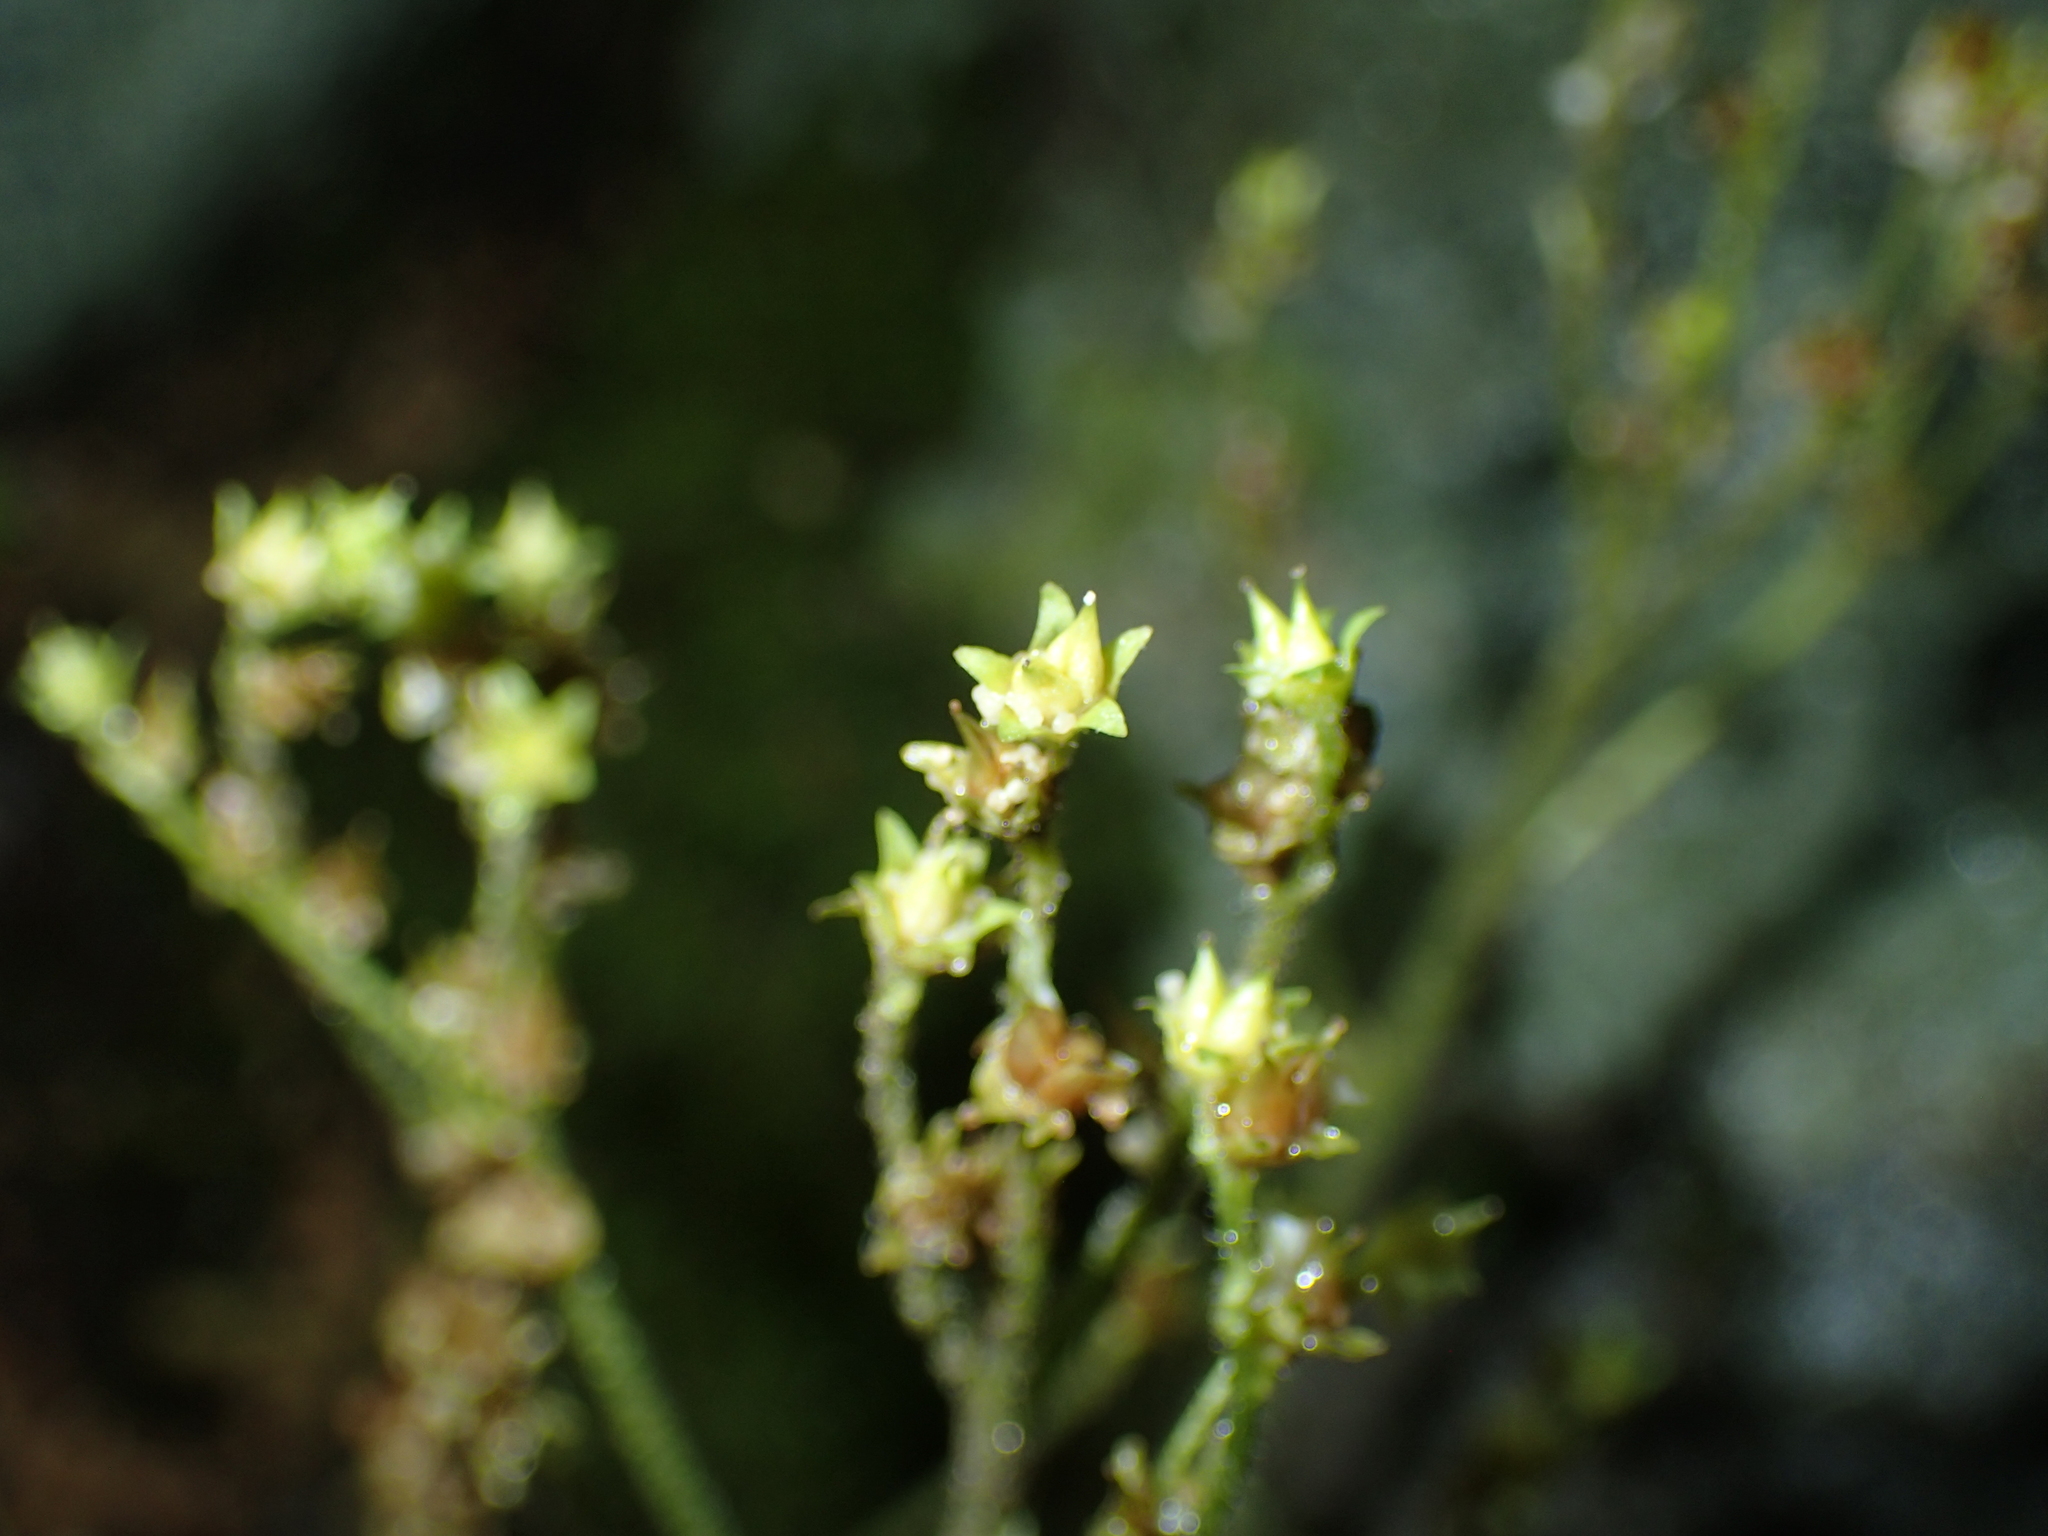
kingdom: Plantae
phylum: Tracheophyta
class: Magnoliopsida
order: Saxifragales
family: Saxifragaceae
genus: Micranthes
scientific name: Micranthes virginiensis
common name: Early saxifrage
